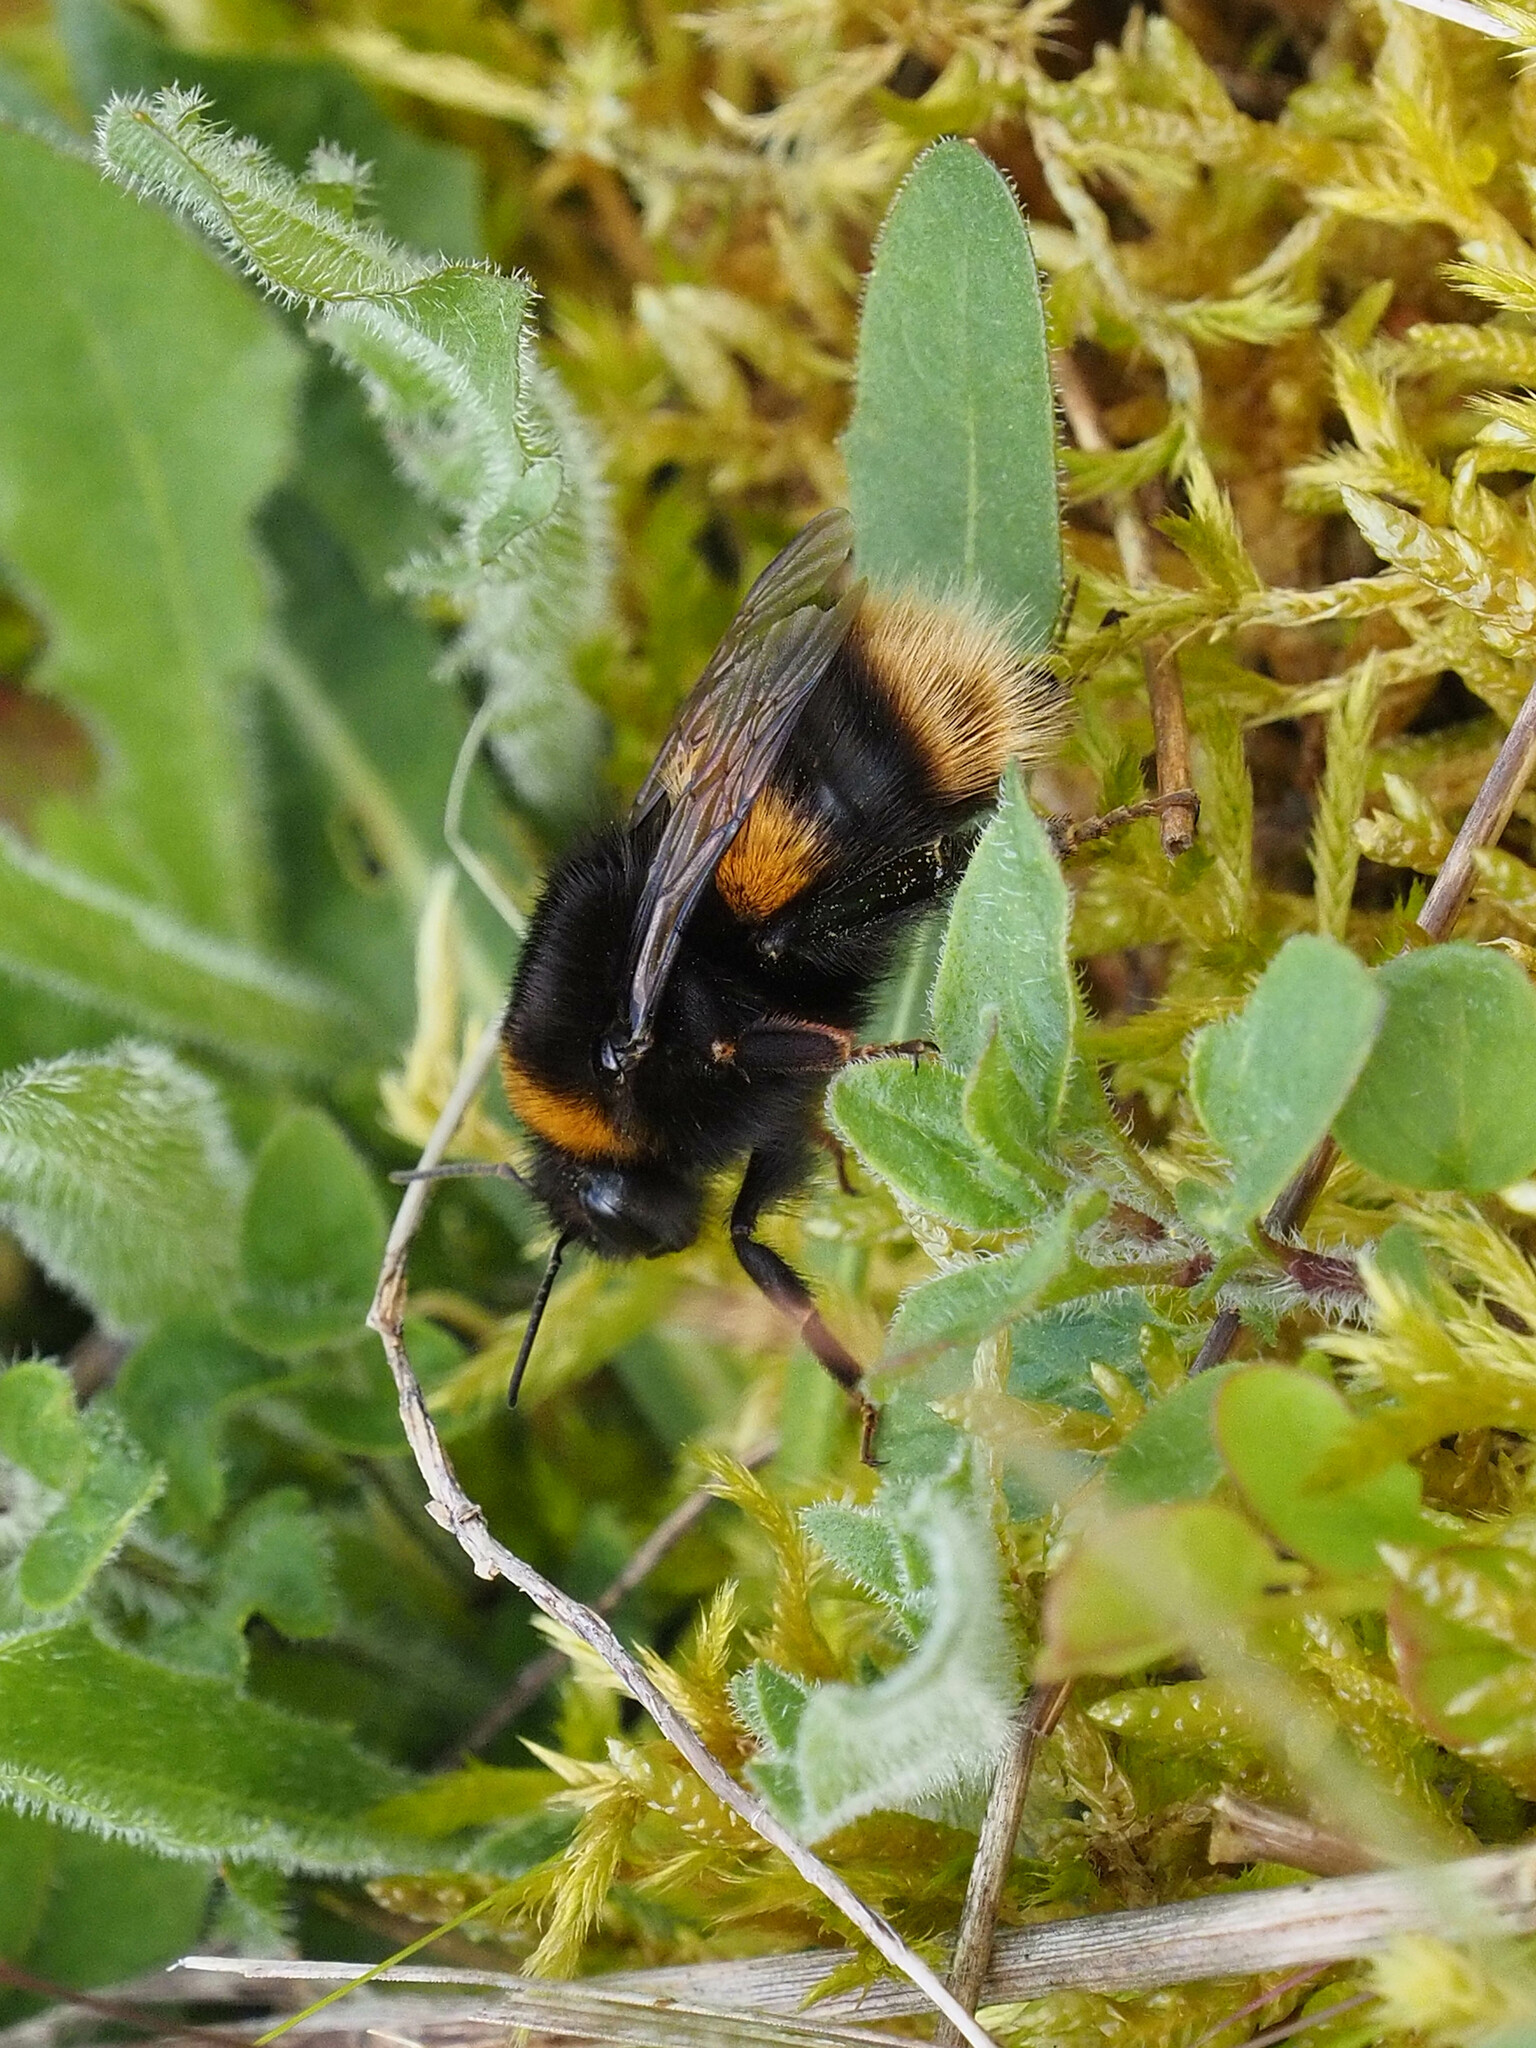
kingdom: Animalia
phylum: Arthropoda
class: Insecta
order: Hymenoptera
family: Apidae
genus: Bombus
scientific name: Bombus terrestris
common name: Buff-tailed bumblebee
